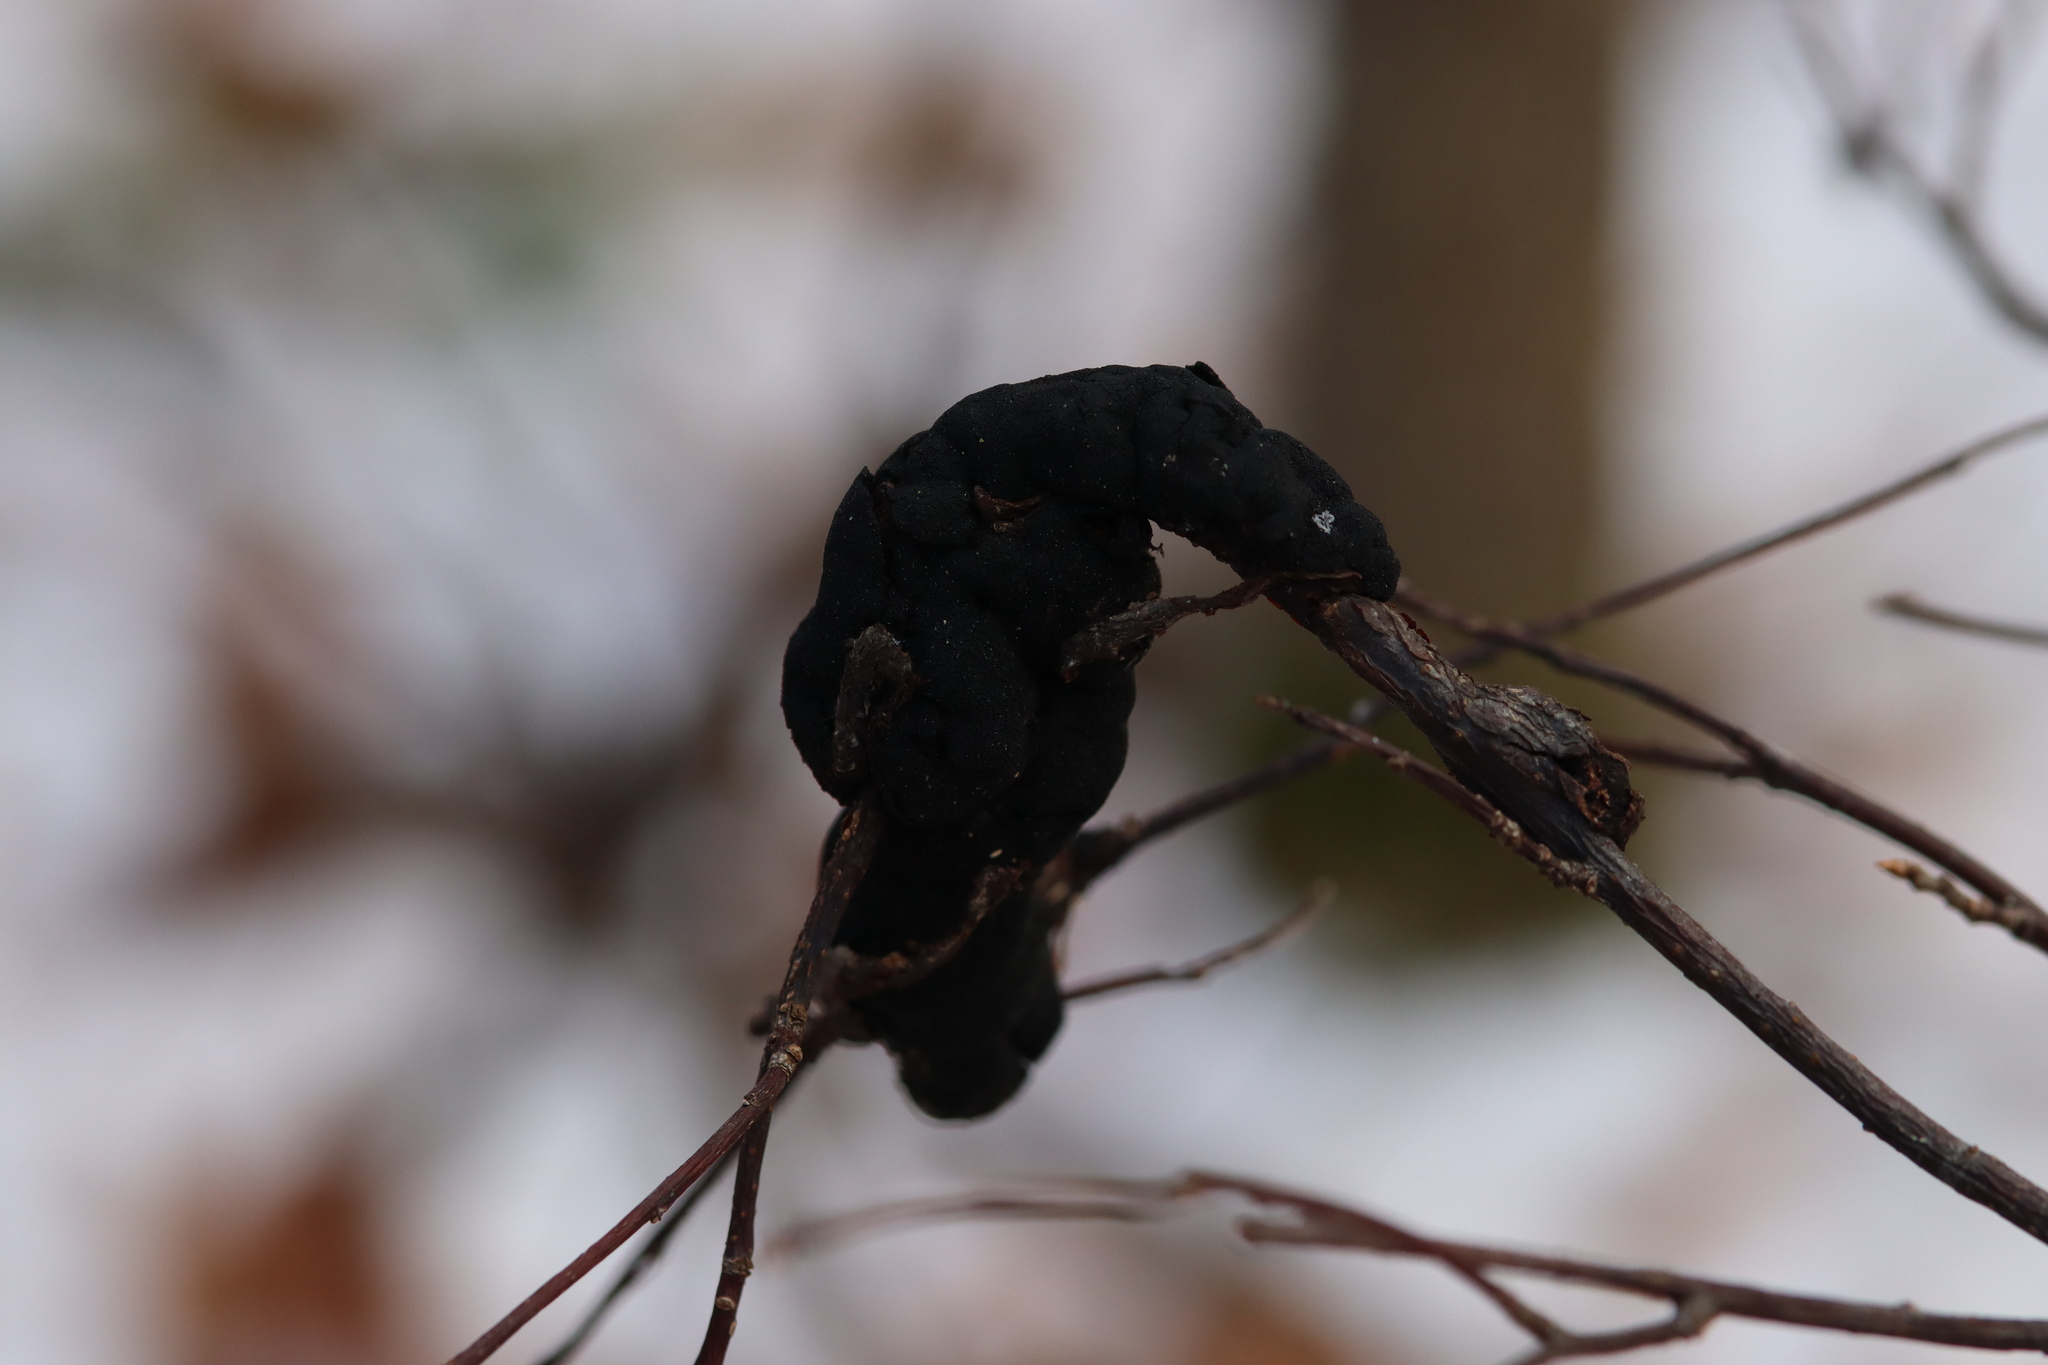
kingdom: Fungi
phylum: Ascomycota
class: Dothideomycetes
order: Venturiales
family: Venturiaceae
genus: Apiosporina
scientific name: Apiosporina morbosa
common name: Black knot
